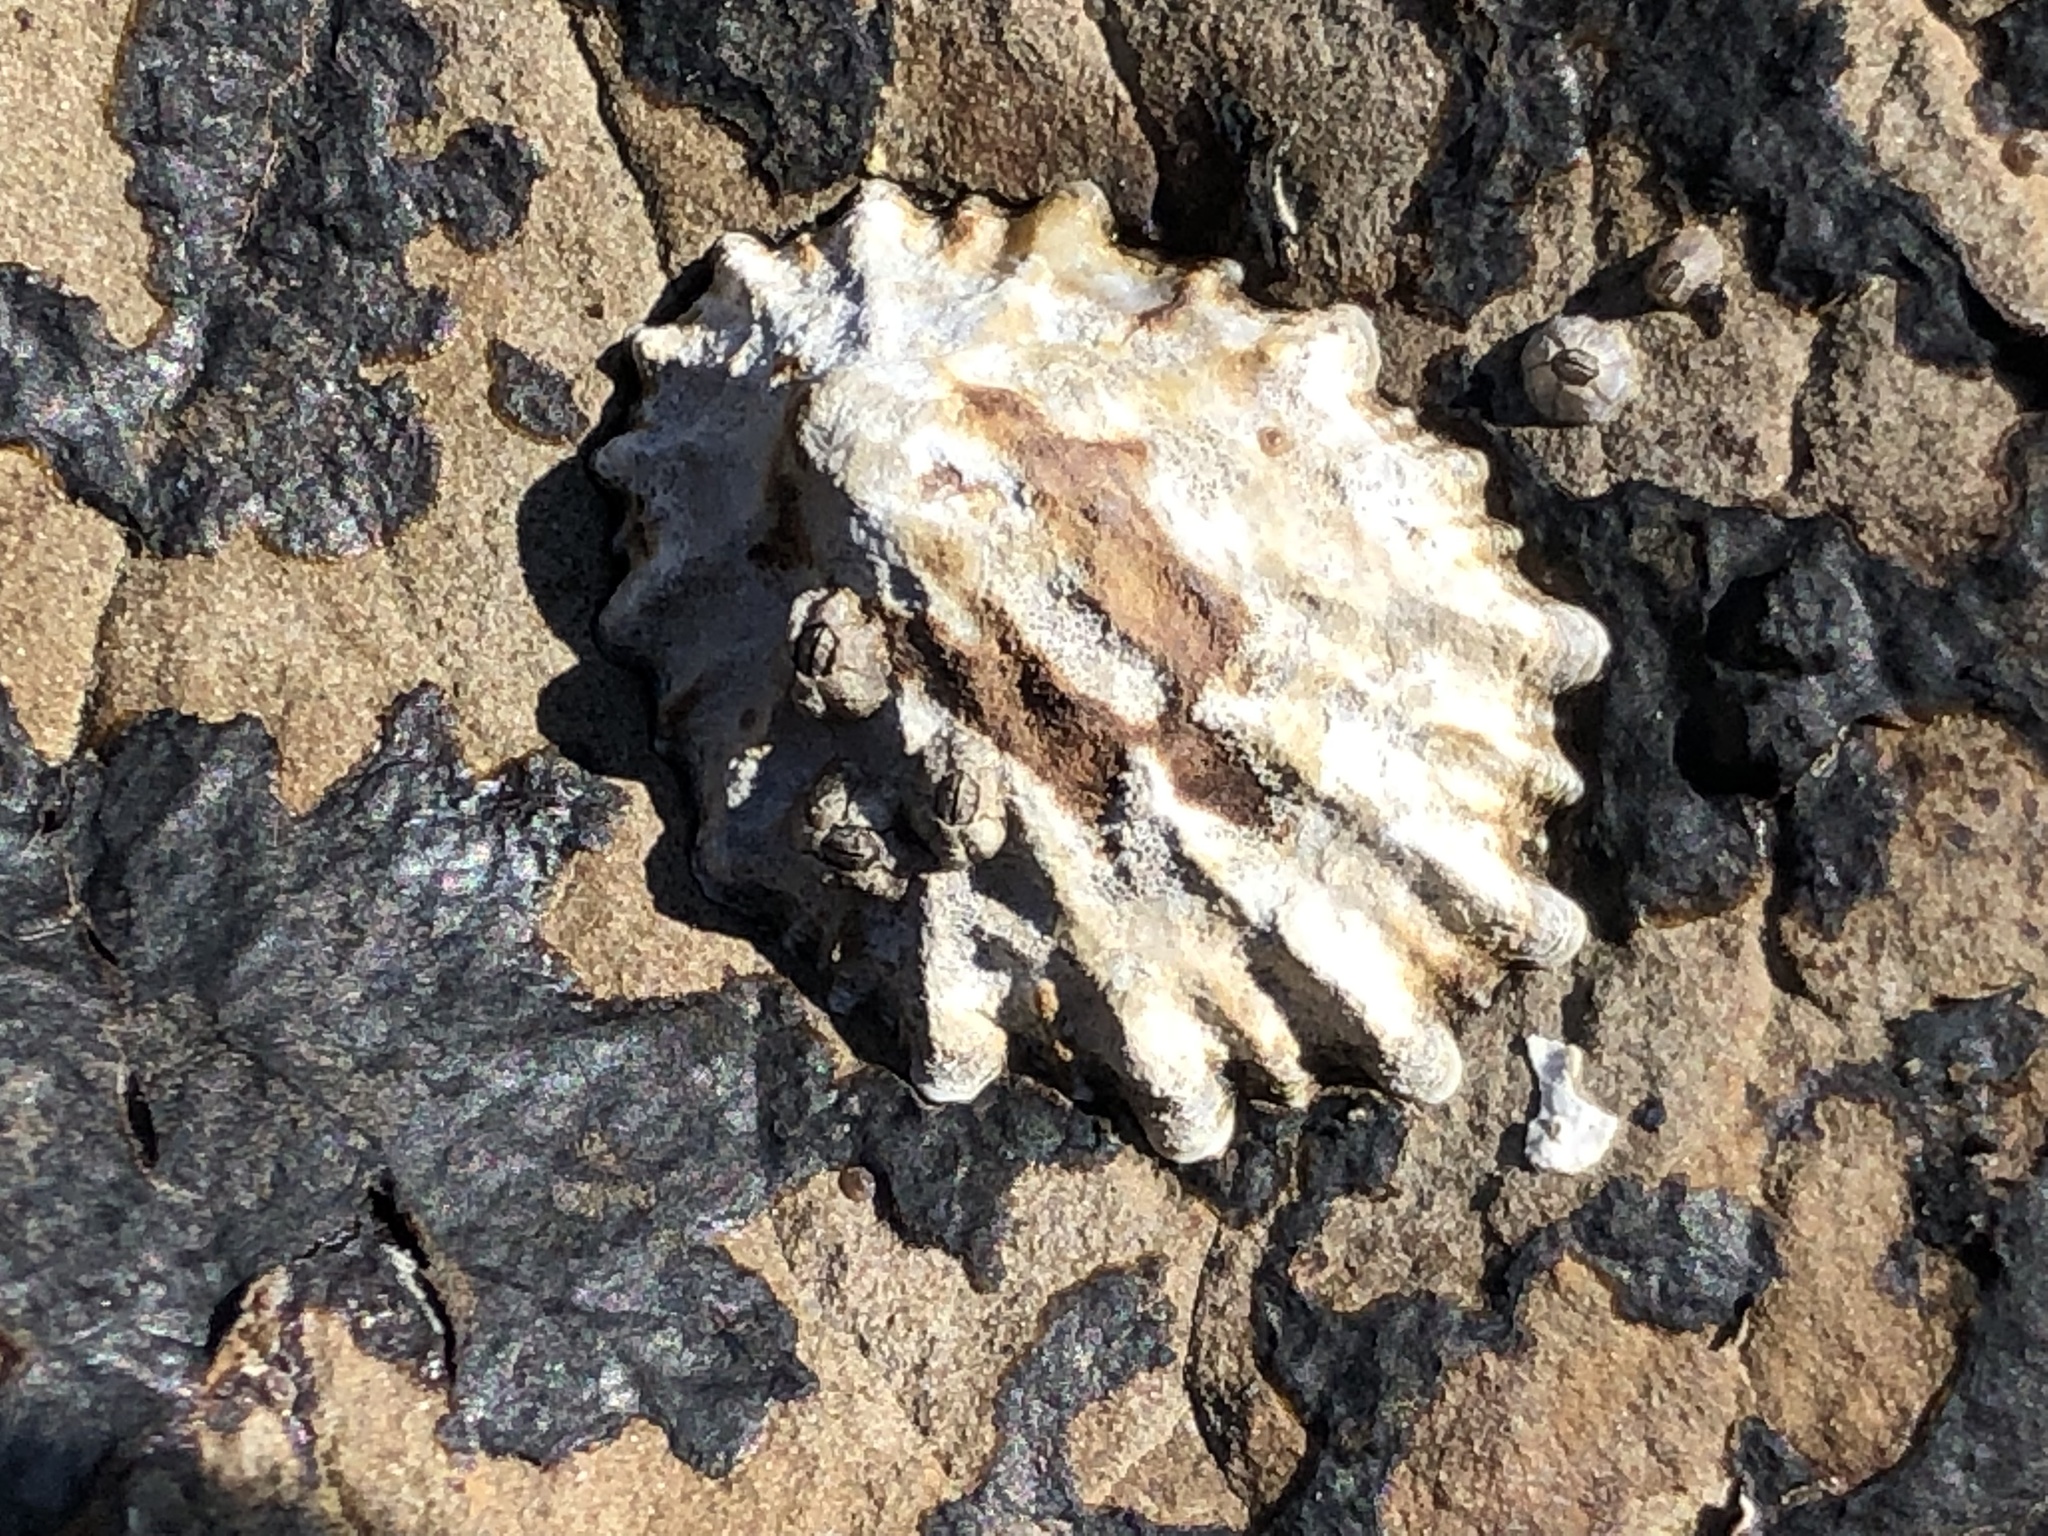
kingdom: Animalia
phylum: Mollusca
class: Gastropoda
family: Lottiidae
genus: Lottia
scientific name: Lottia scabra
